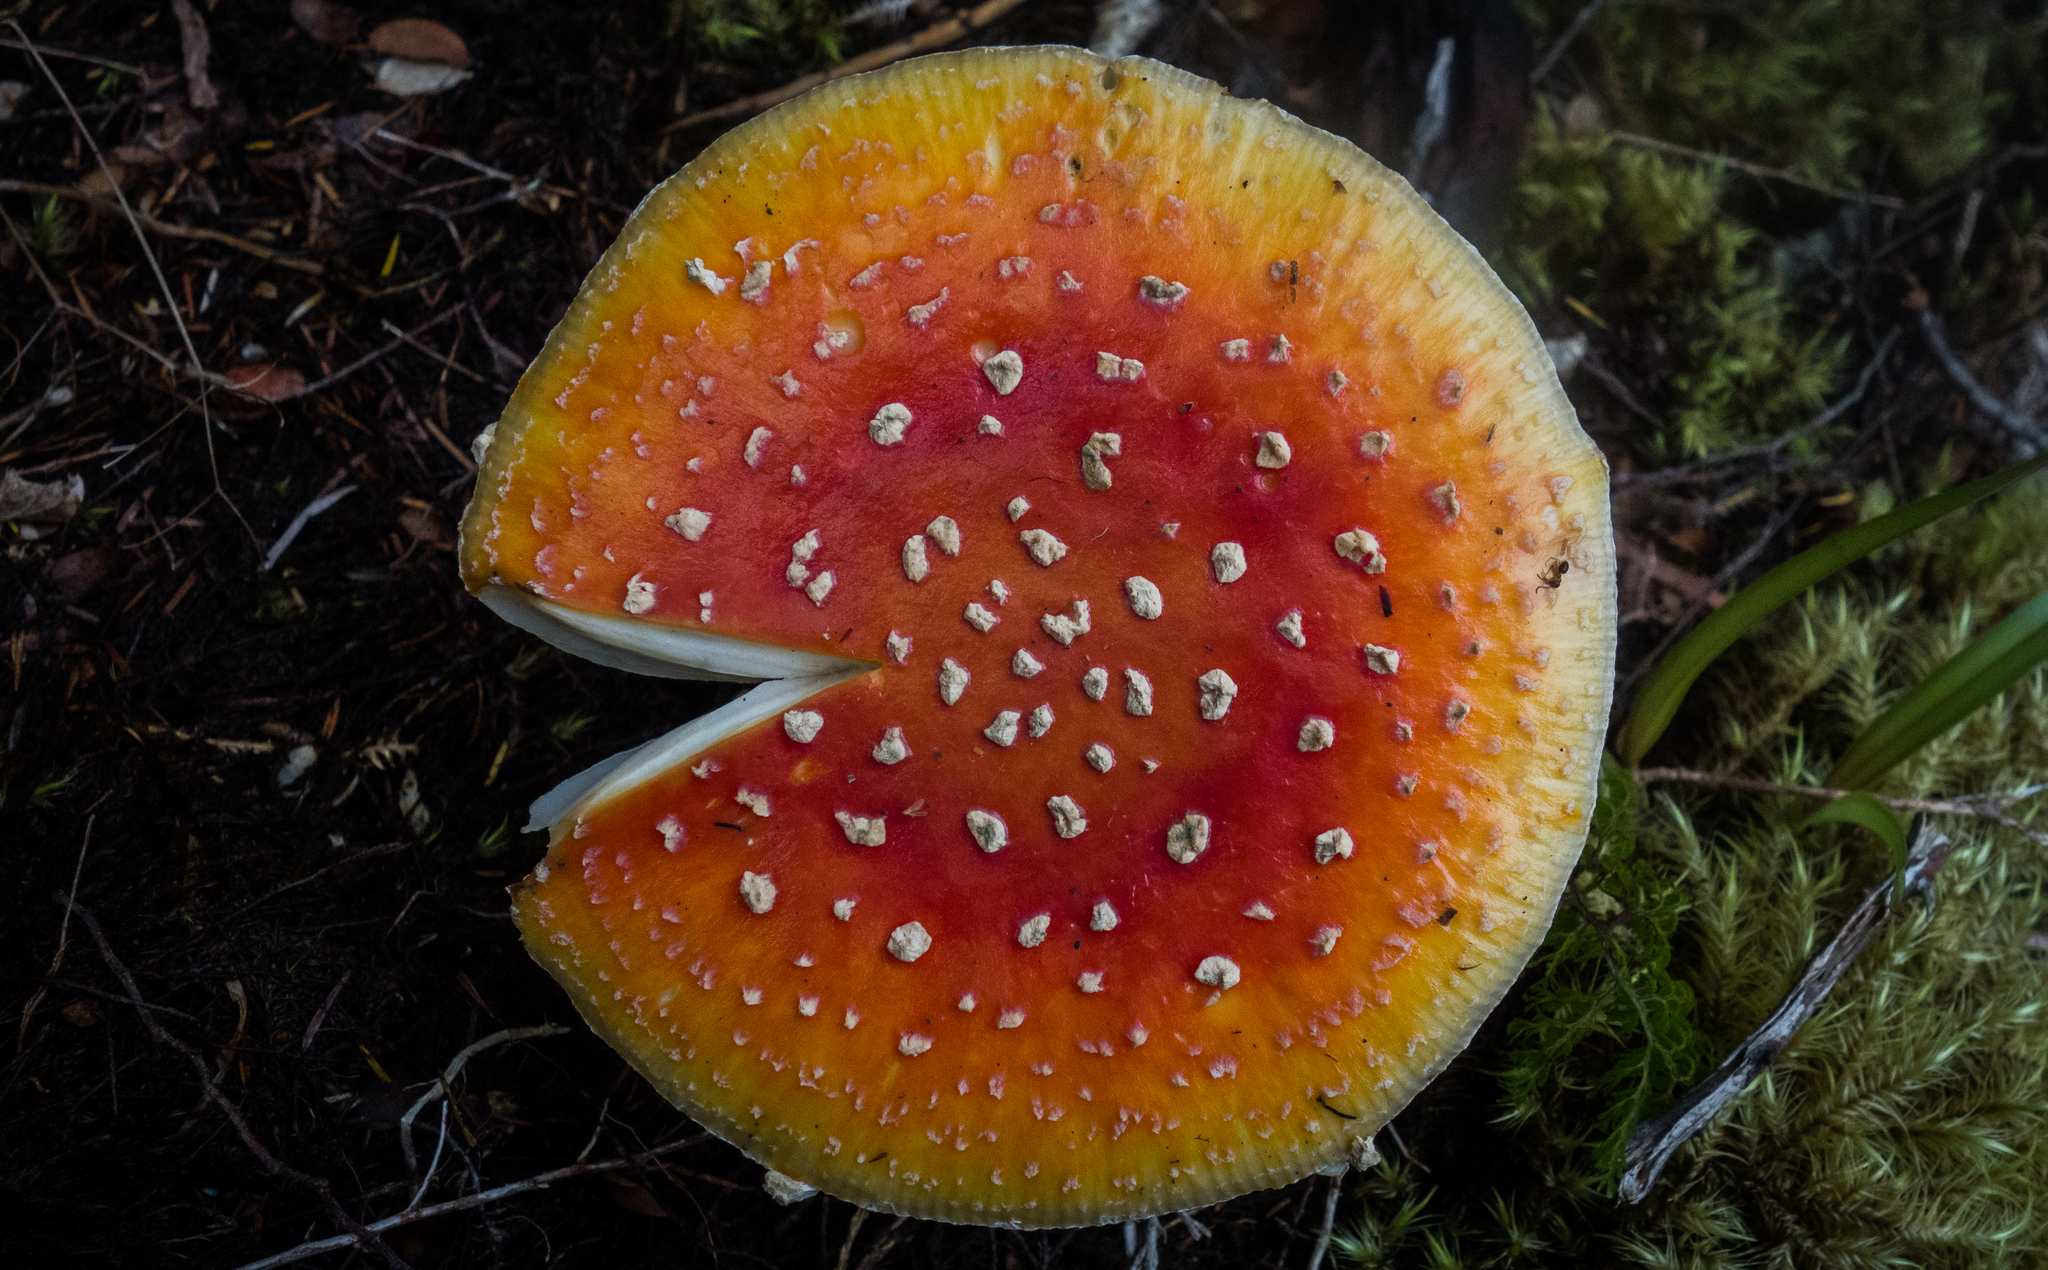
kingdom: Fungi
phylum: Basidiomycota
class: Agaricomycetes
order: Agaricales
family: Amanitaceae
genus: Amanita
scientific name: Amanita muscaria
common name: Fly agaric
